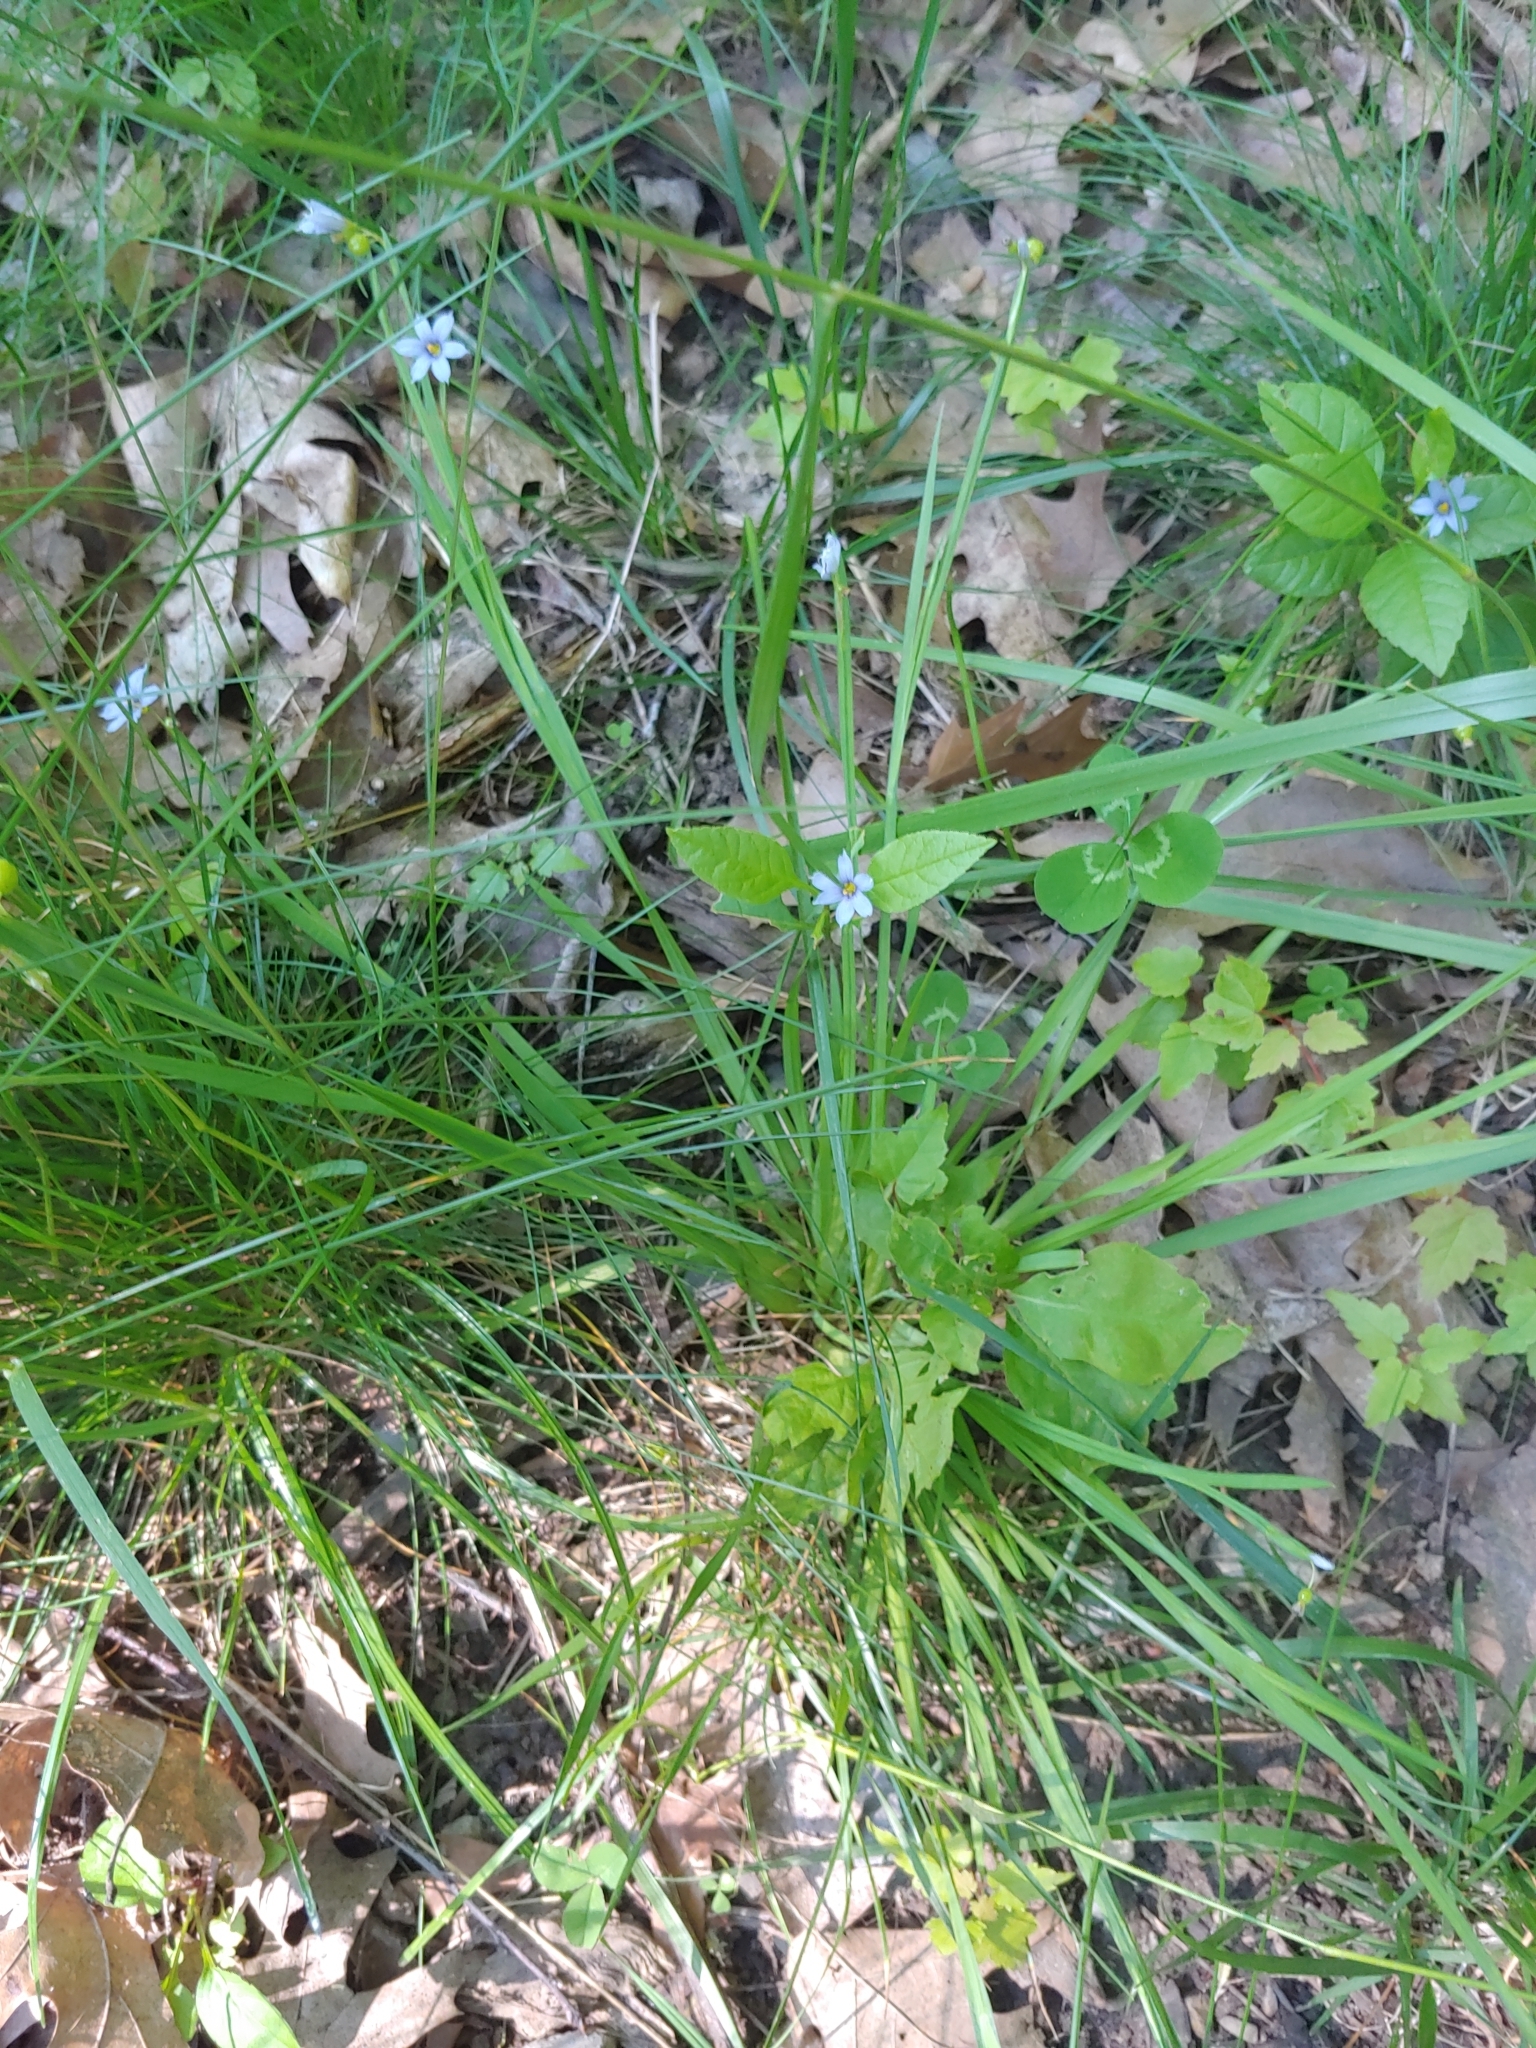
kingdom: Plantae
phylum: Tracheophyta
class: Liliopsida
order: Asparagales
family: Iridaceae
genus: Sisyrinchium
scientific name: Sisyrinchium angustifolium
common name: Narrow-leaf blue-eyed-grass
